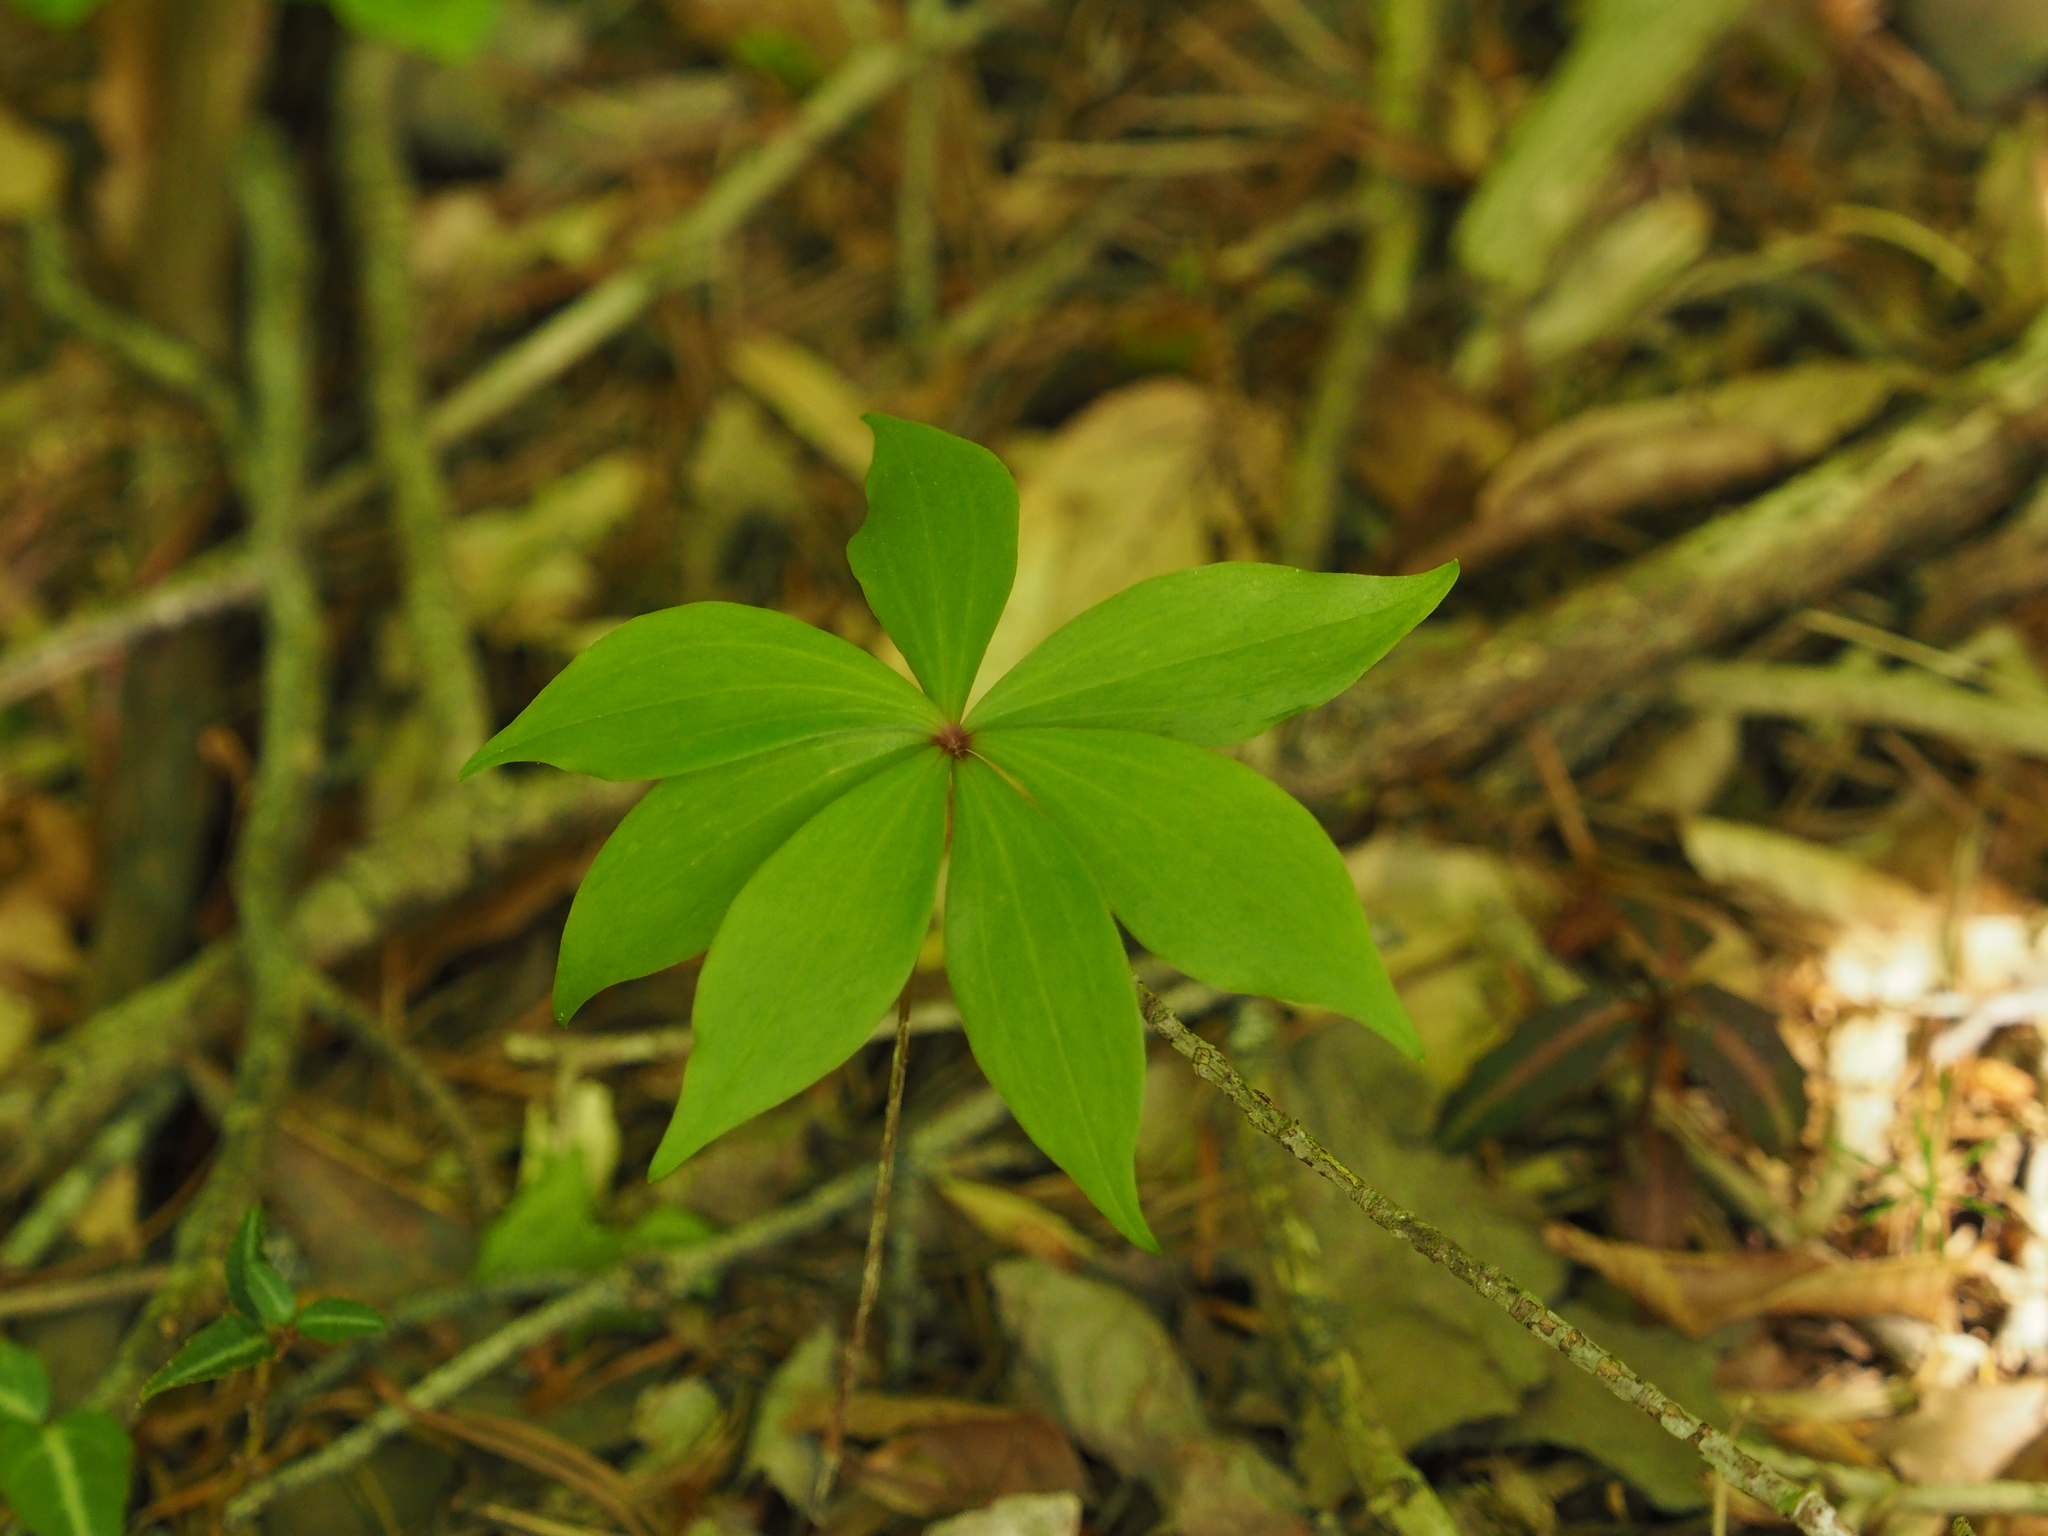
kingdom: Plantae
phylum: Tracheophyta
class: Liliopsida
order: Liliales
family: Liliaceae
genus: Medeola
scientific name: Medeola virginiana
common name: Indian cucumber-root
